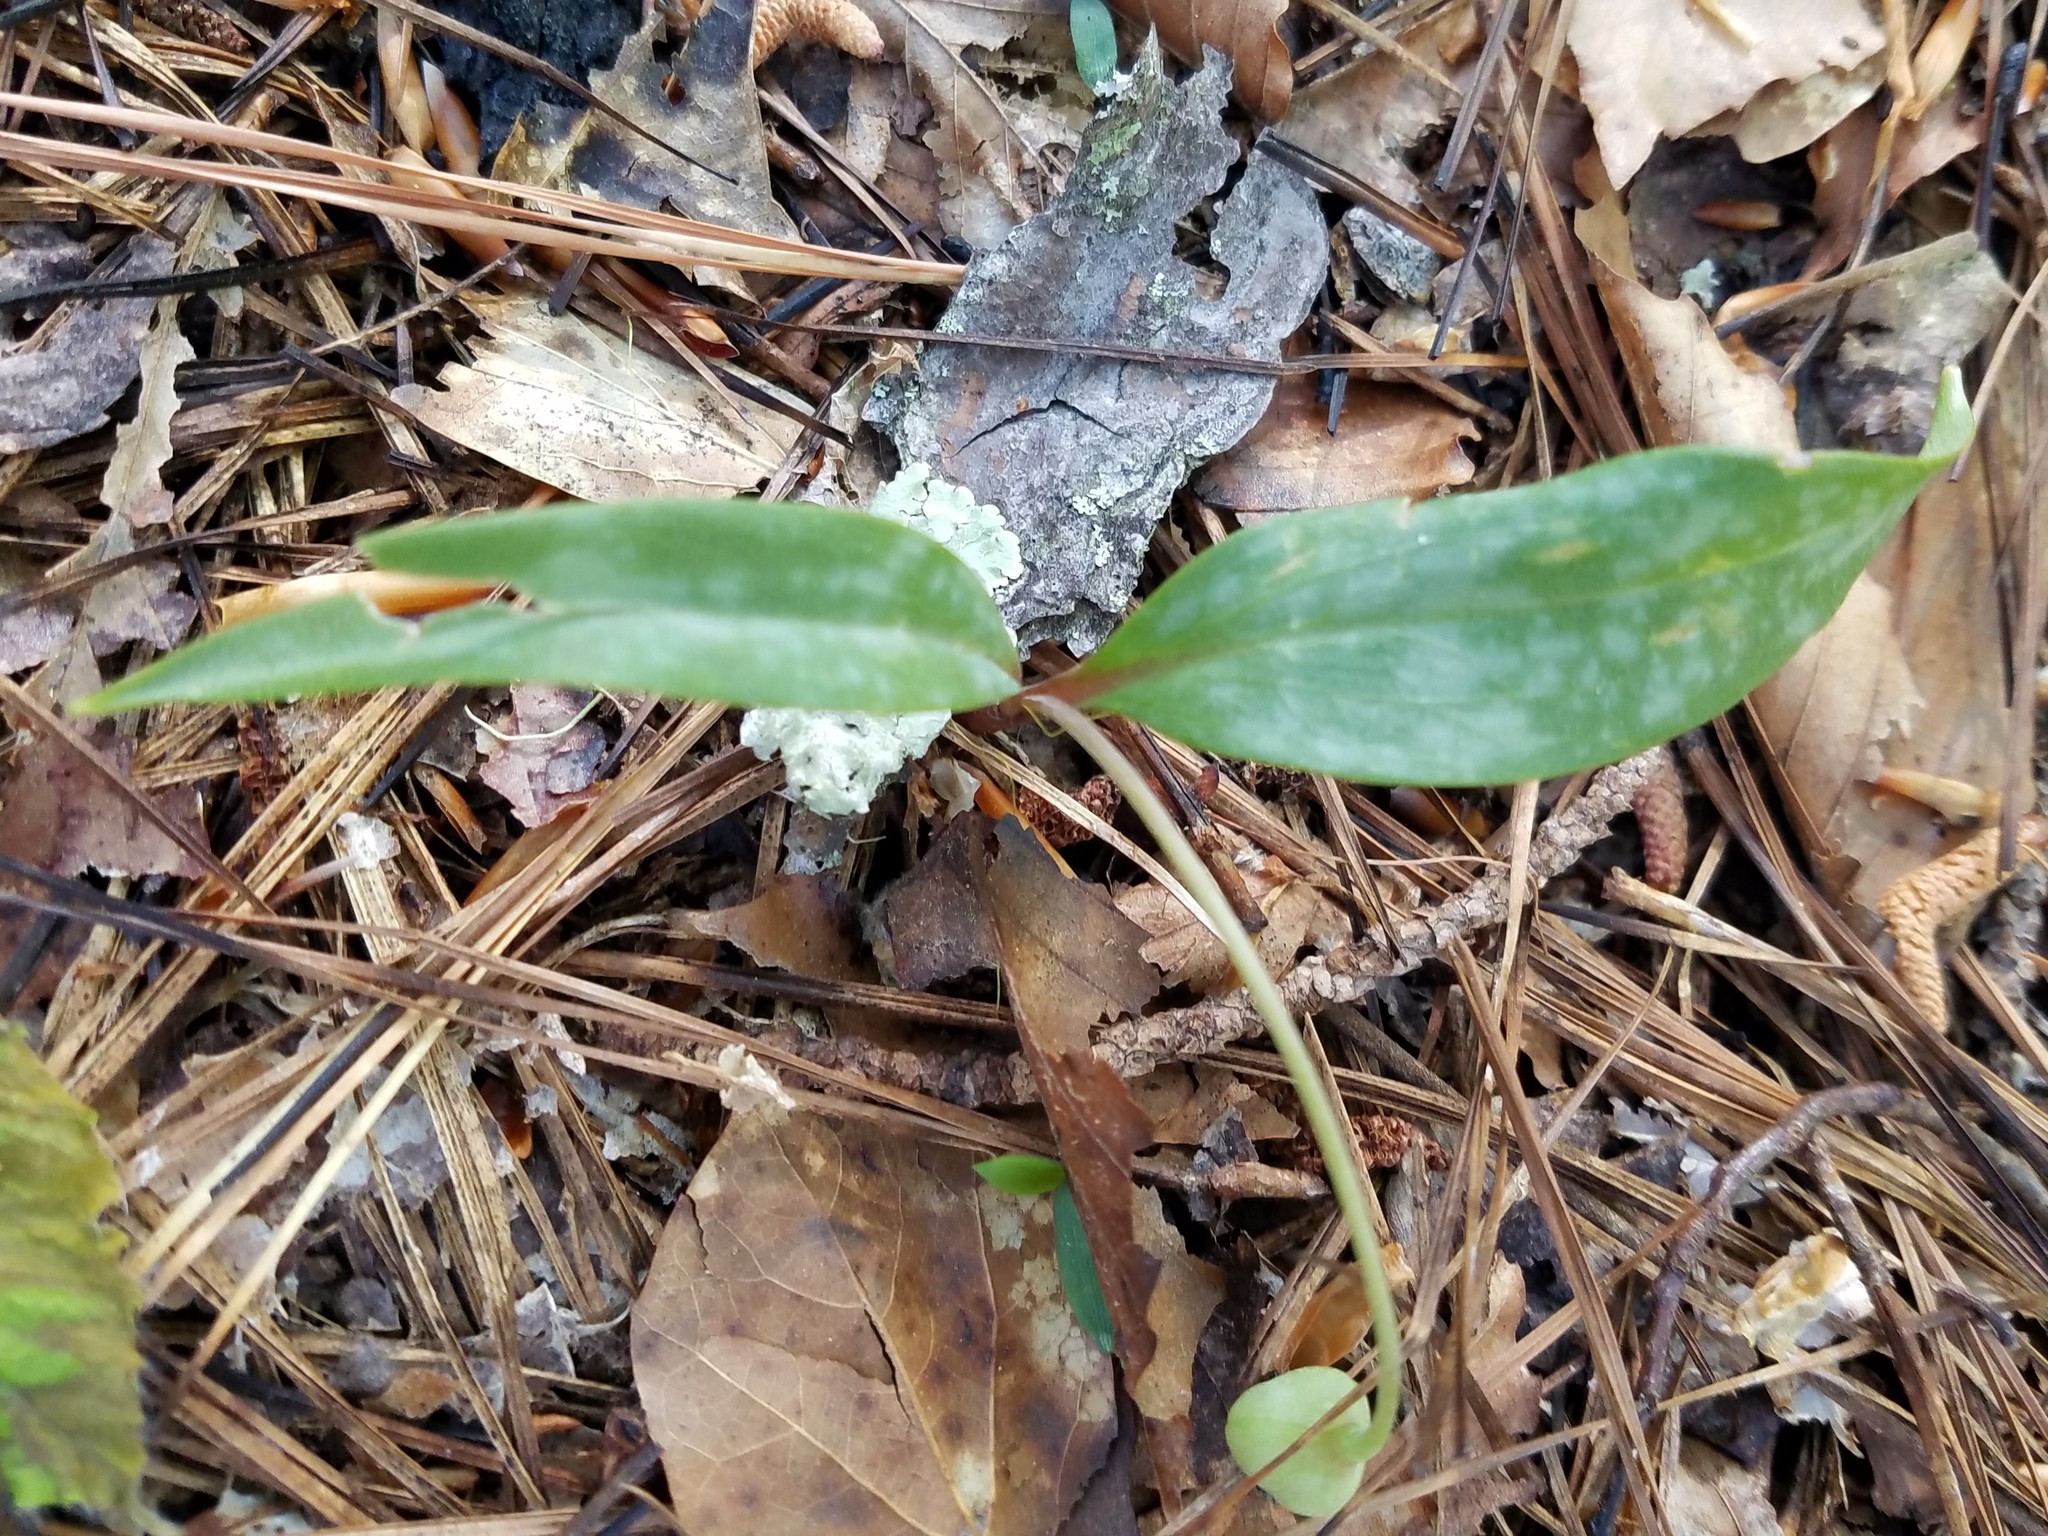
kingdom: Plantae
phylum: Tracheophyta
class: Liliopsida
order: Liliales
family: Liliaceae
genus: Erythronium
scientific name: Erythronium umbilicatum
